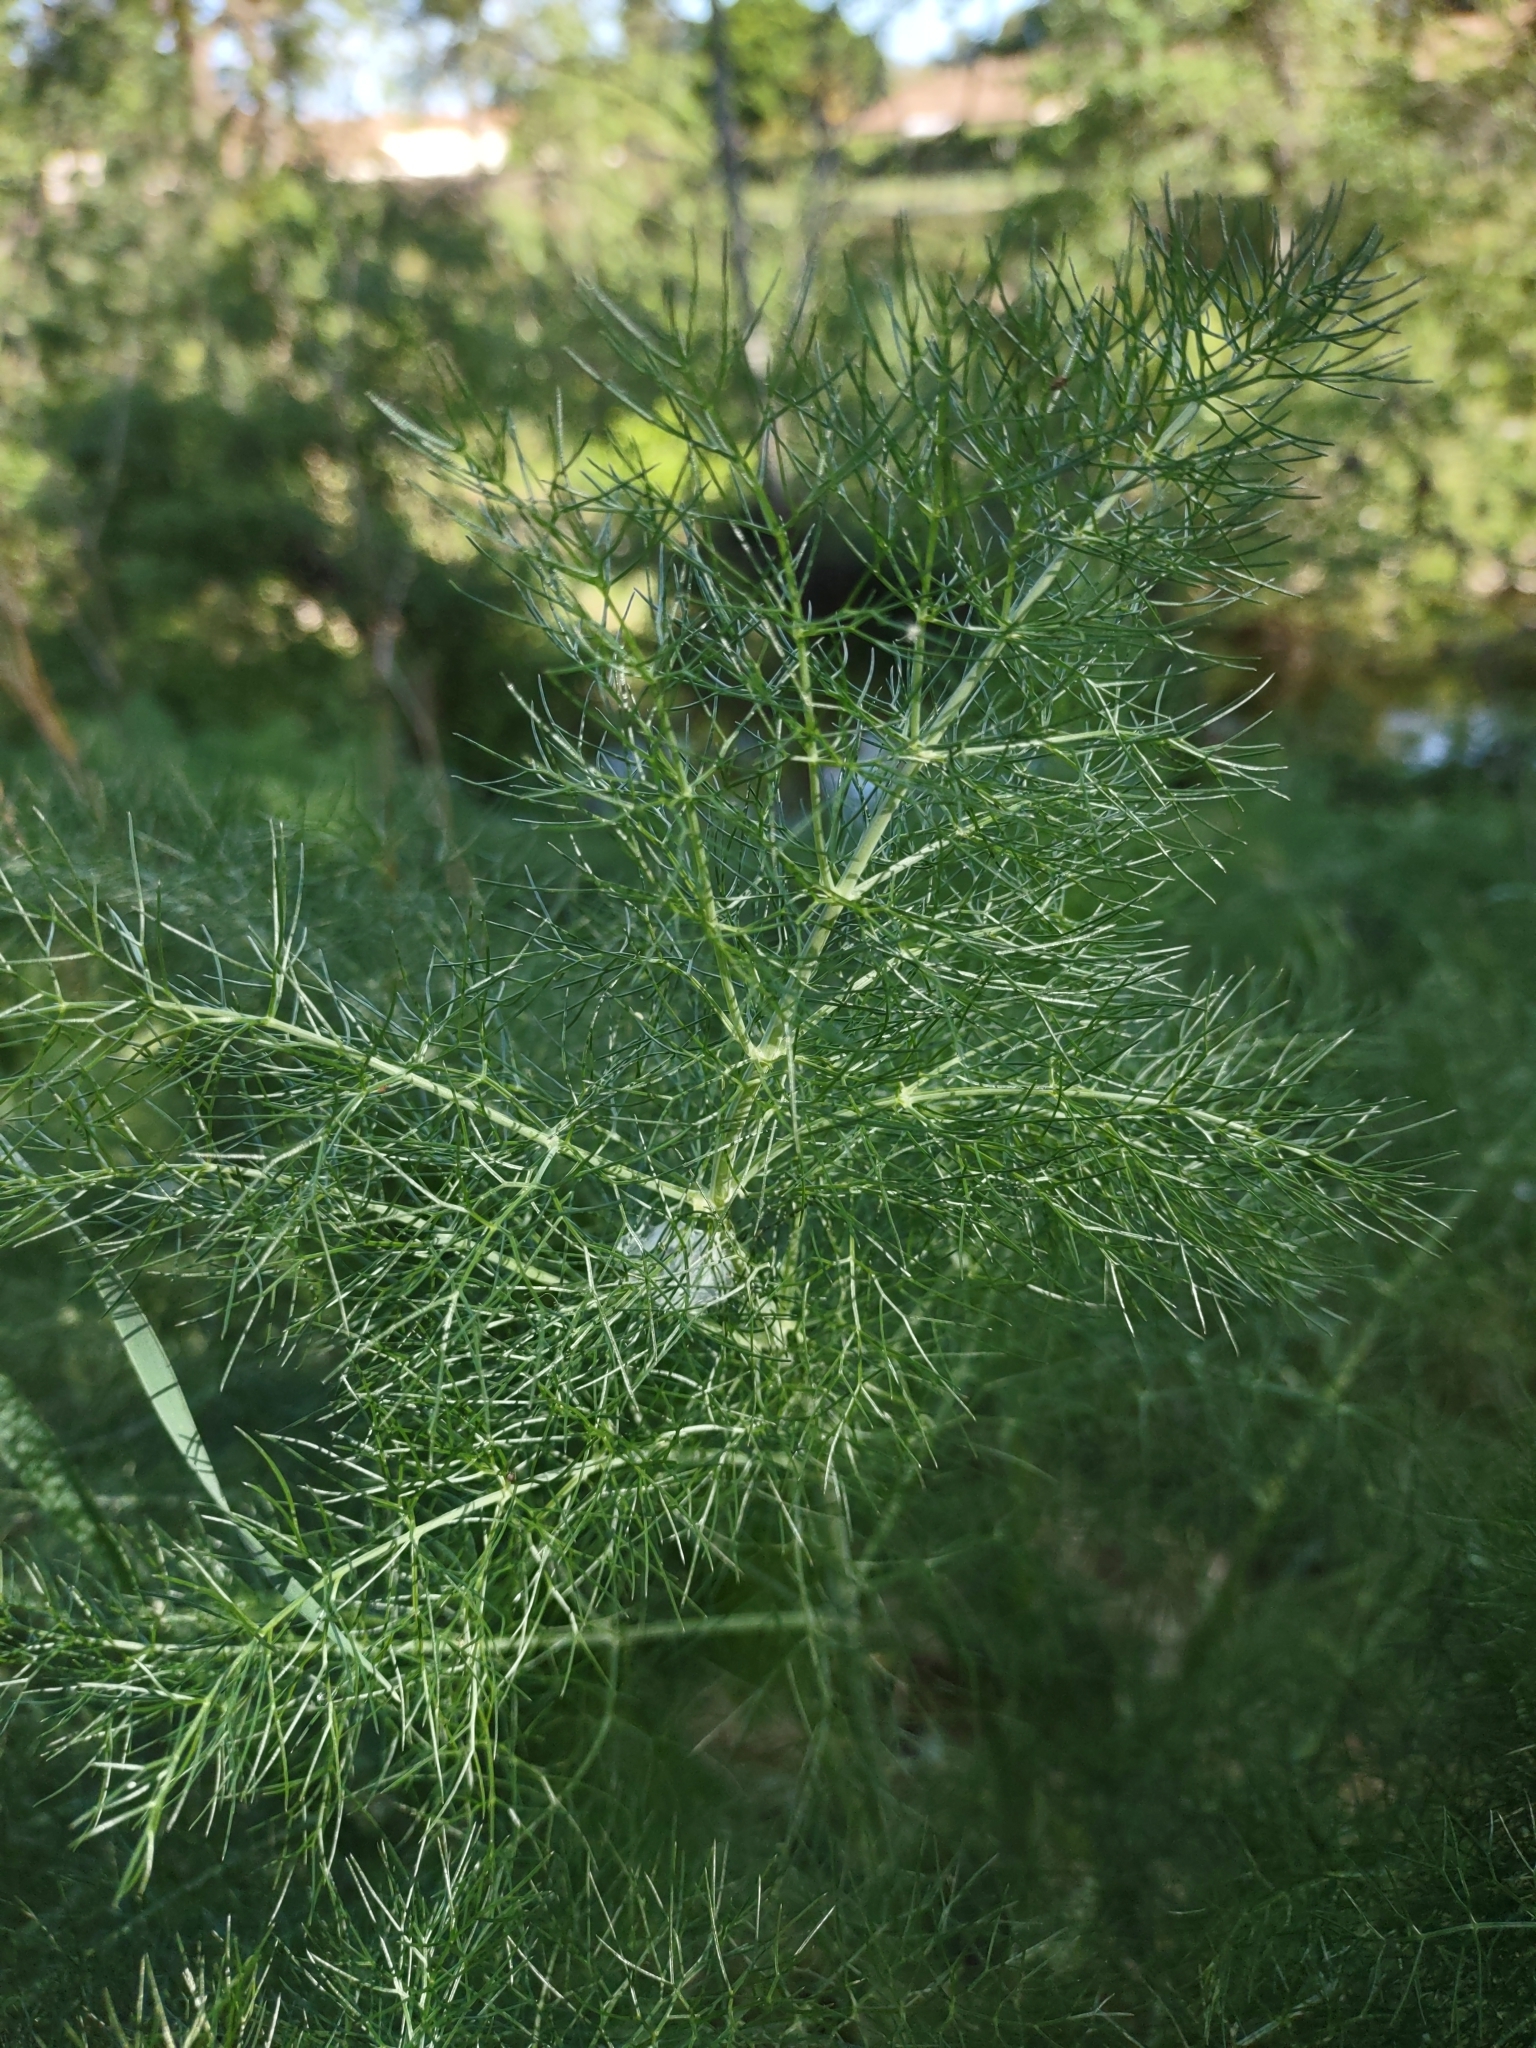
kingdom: Plantae
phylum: Tracheophyta
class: Magnoliopsida
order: Apiales
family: Apiaceae
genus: Foeniculum
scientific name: Foeniculum vulgare
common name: Fennel
